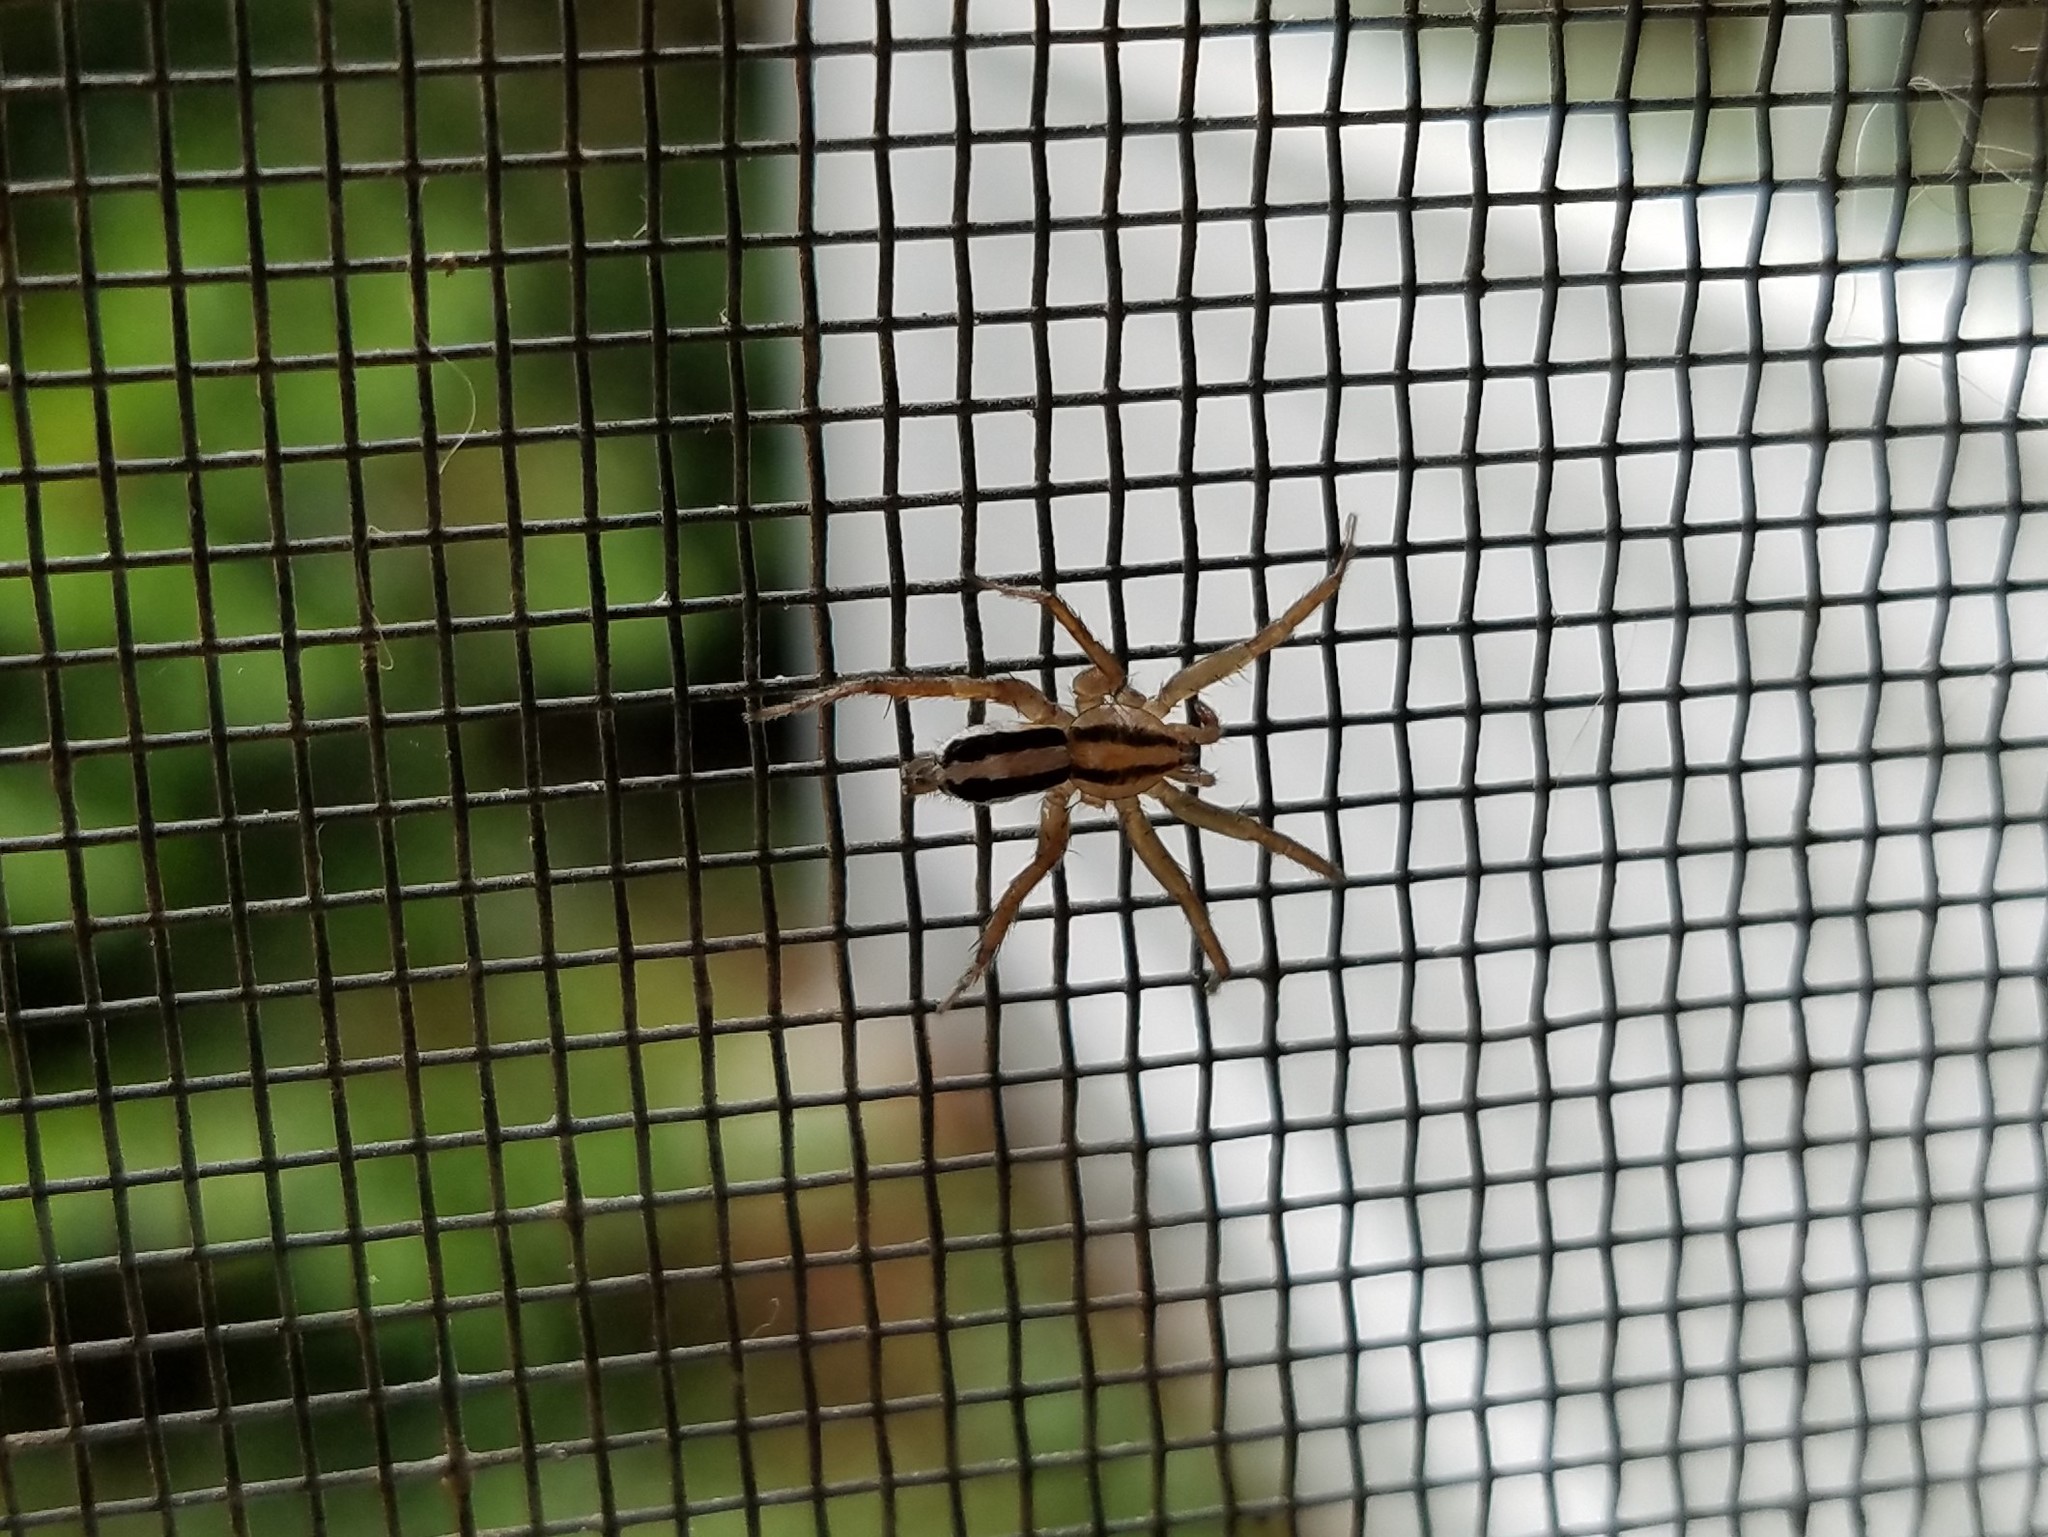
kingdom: Animalia
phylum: Arthropoda
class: Arachnida
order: Araneae
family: Gnaphosidae
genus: Cesonia
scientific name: Cesonia bilineata
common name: Two-lined stealthy ground spider
